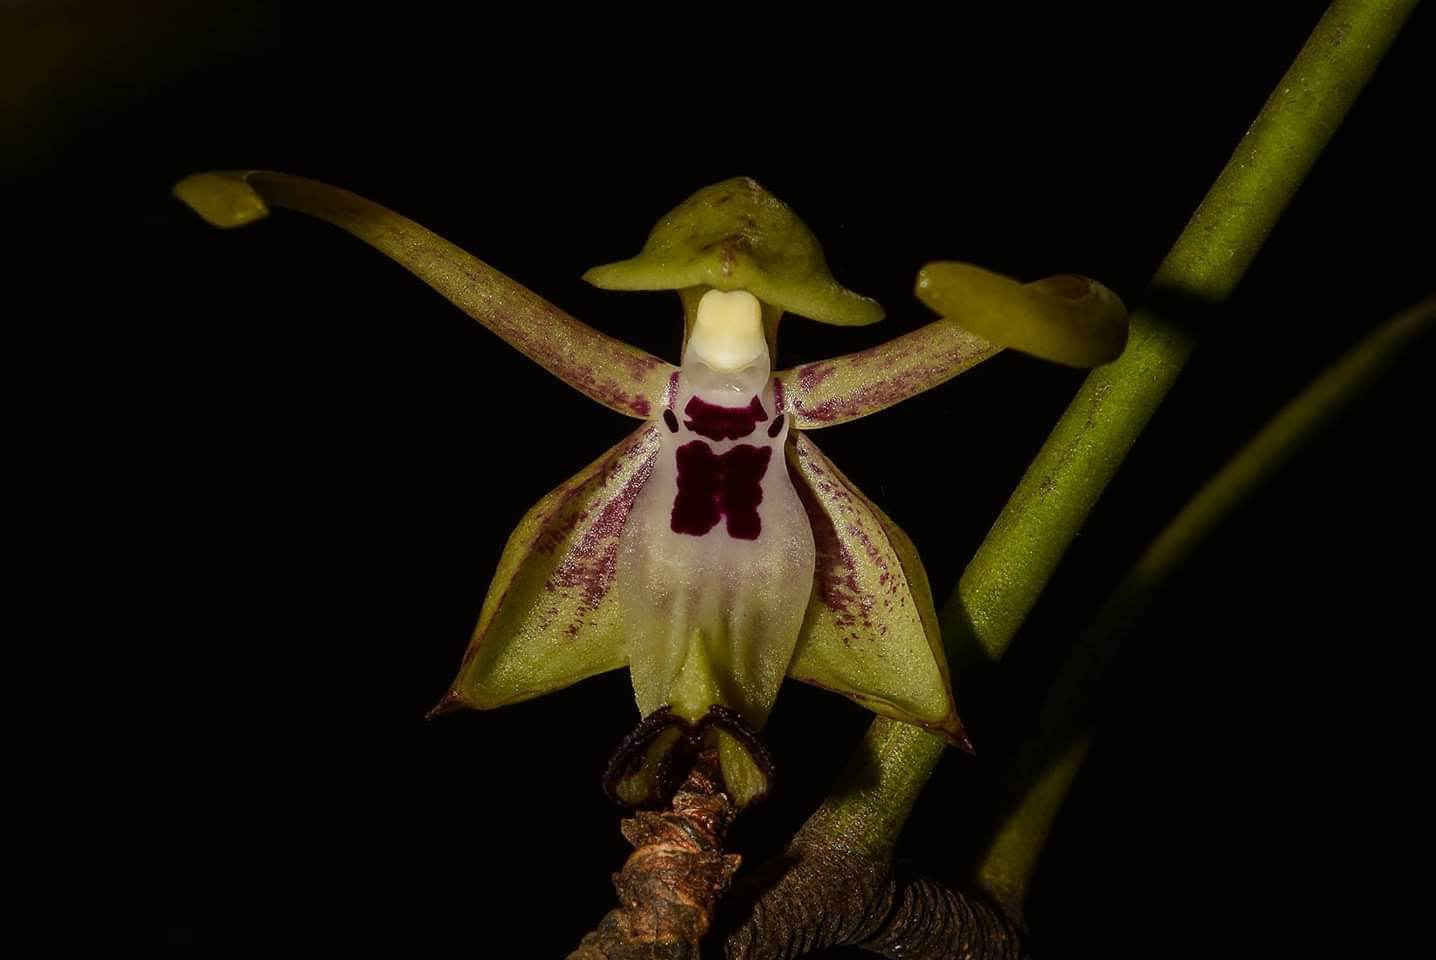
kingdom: Plantae
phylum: Tracheophyta
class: Liliopsida
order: Asparagales
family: Orchidaceae
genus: Luisia
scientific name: Luisia macrantha
